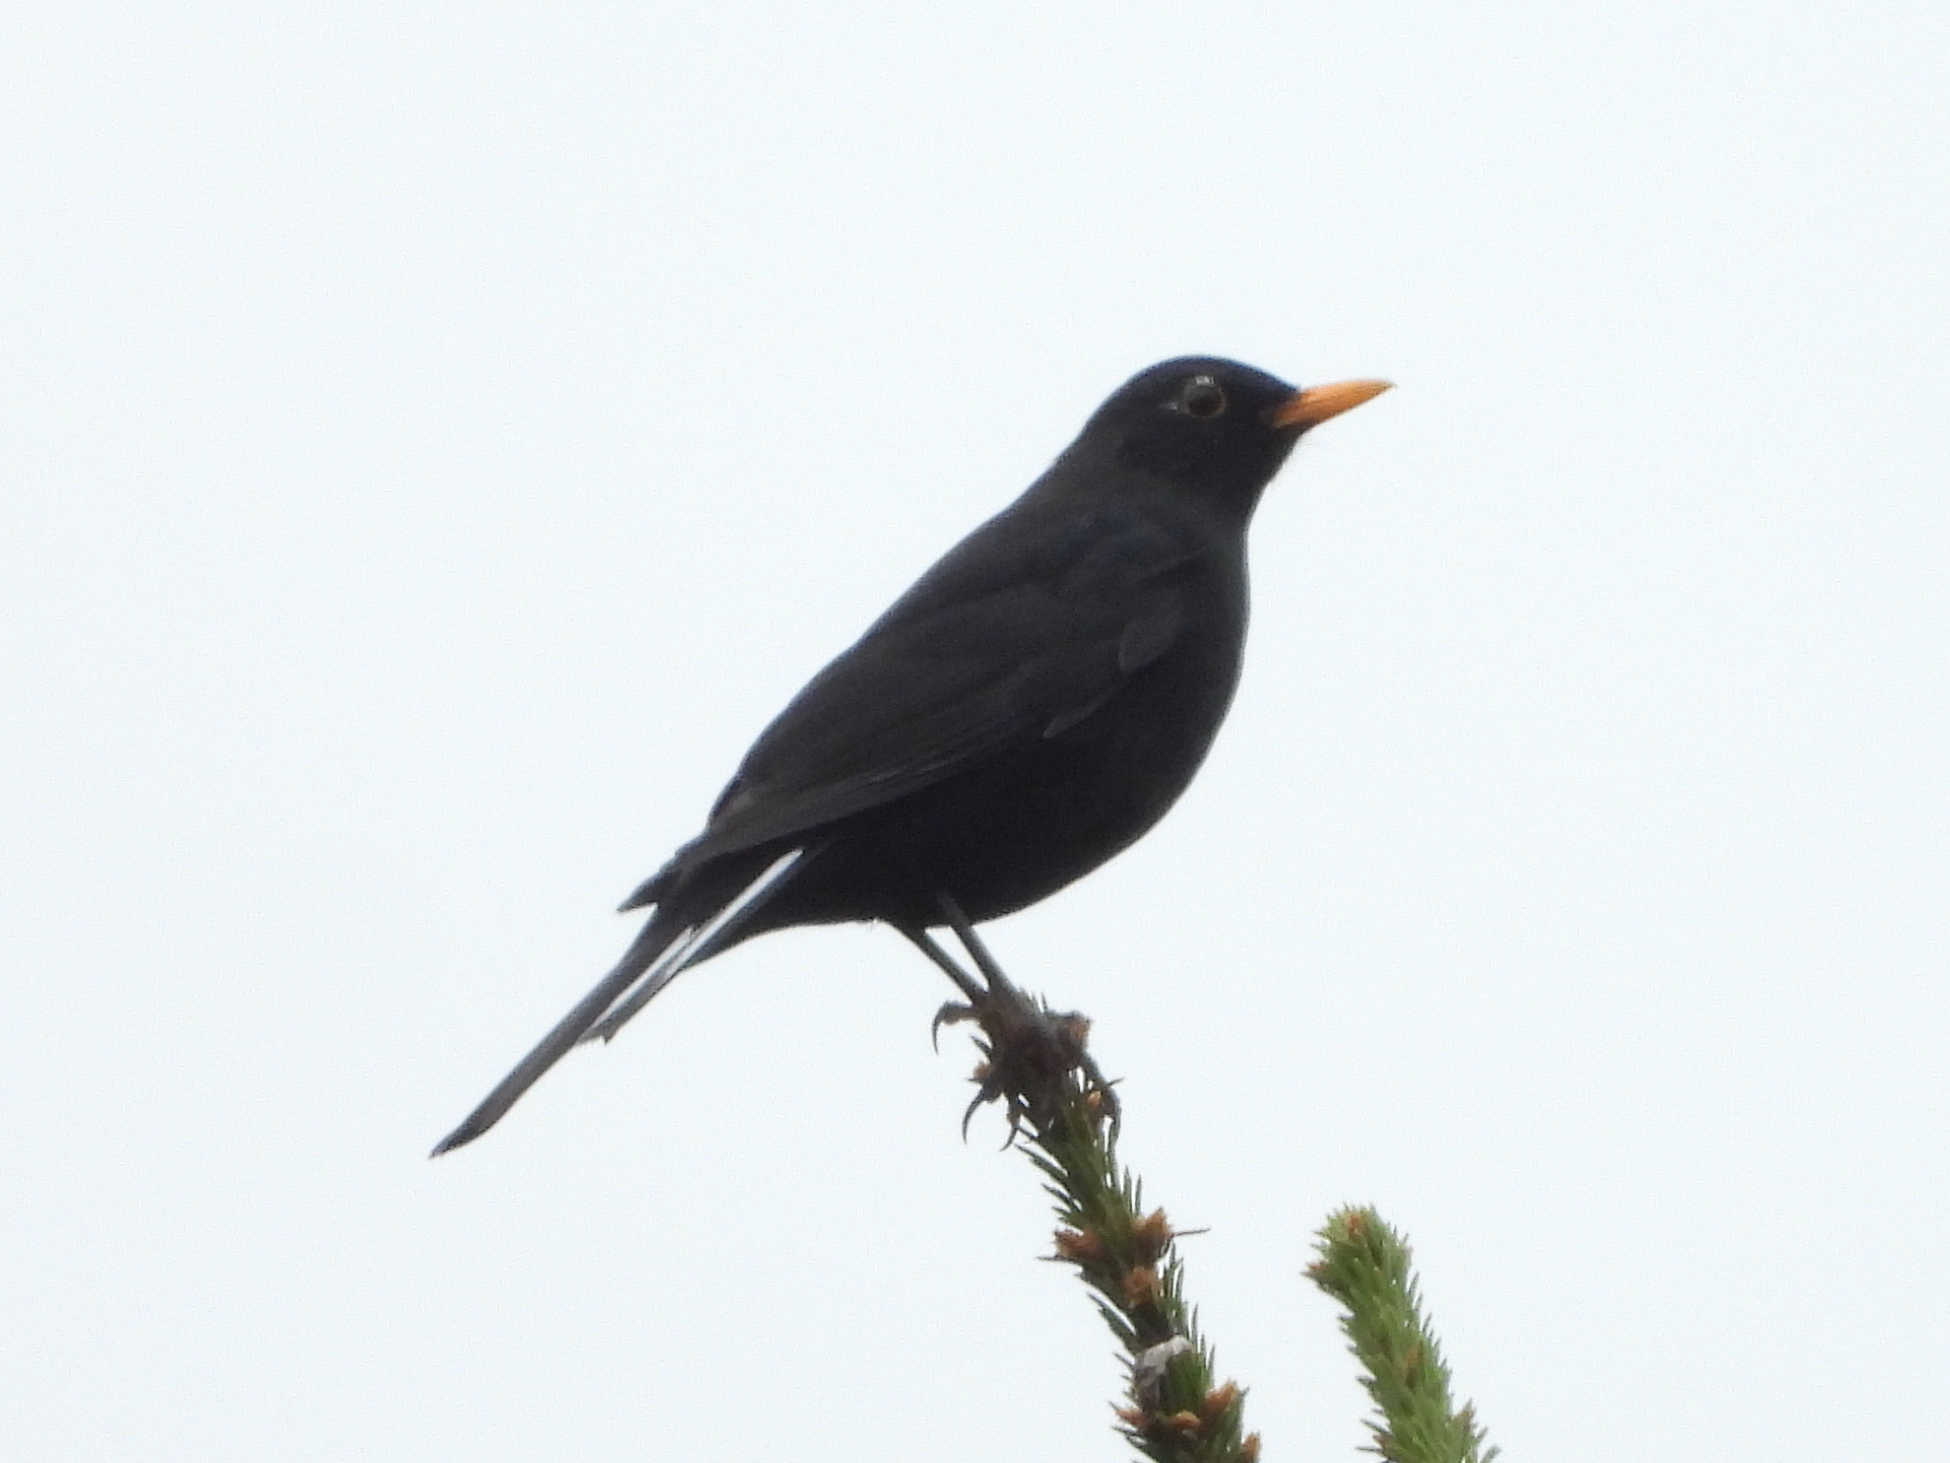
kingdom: Animalia
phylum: Chordata
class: Aves
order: Passeriformes
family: Turdidae
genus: Turdus
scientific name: Turdus merula
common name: Common blackbird
